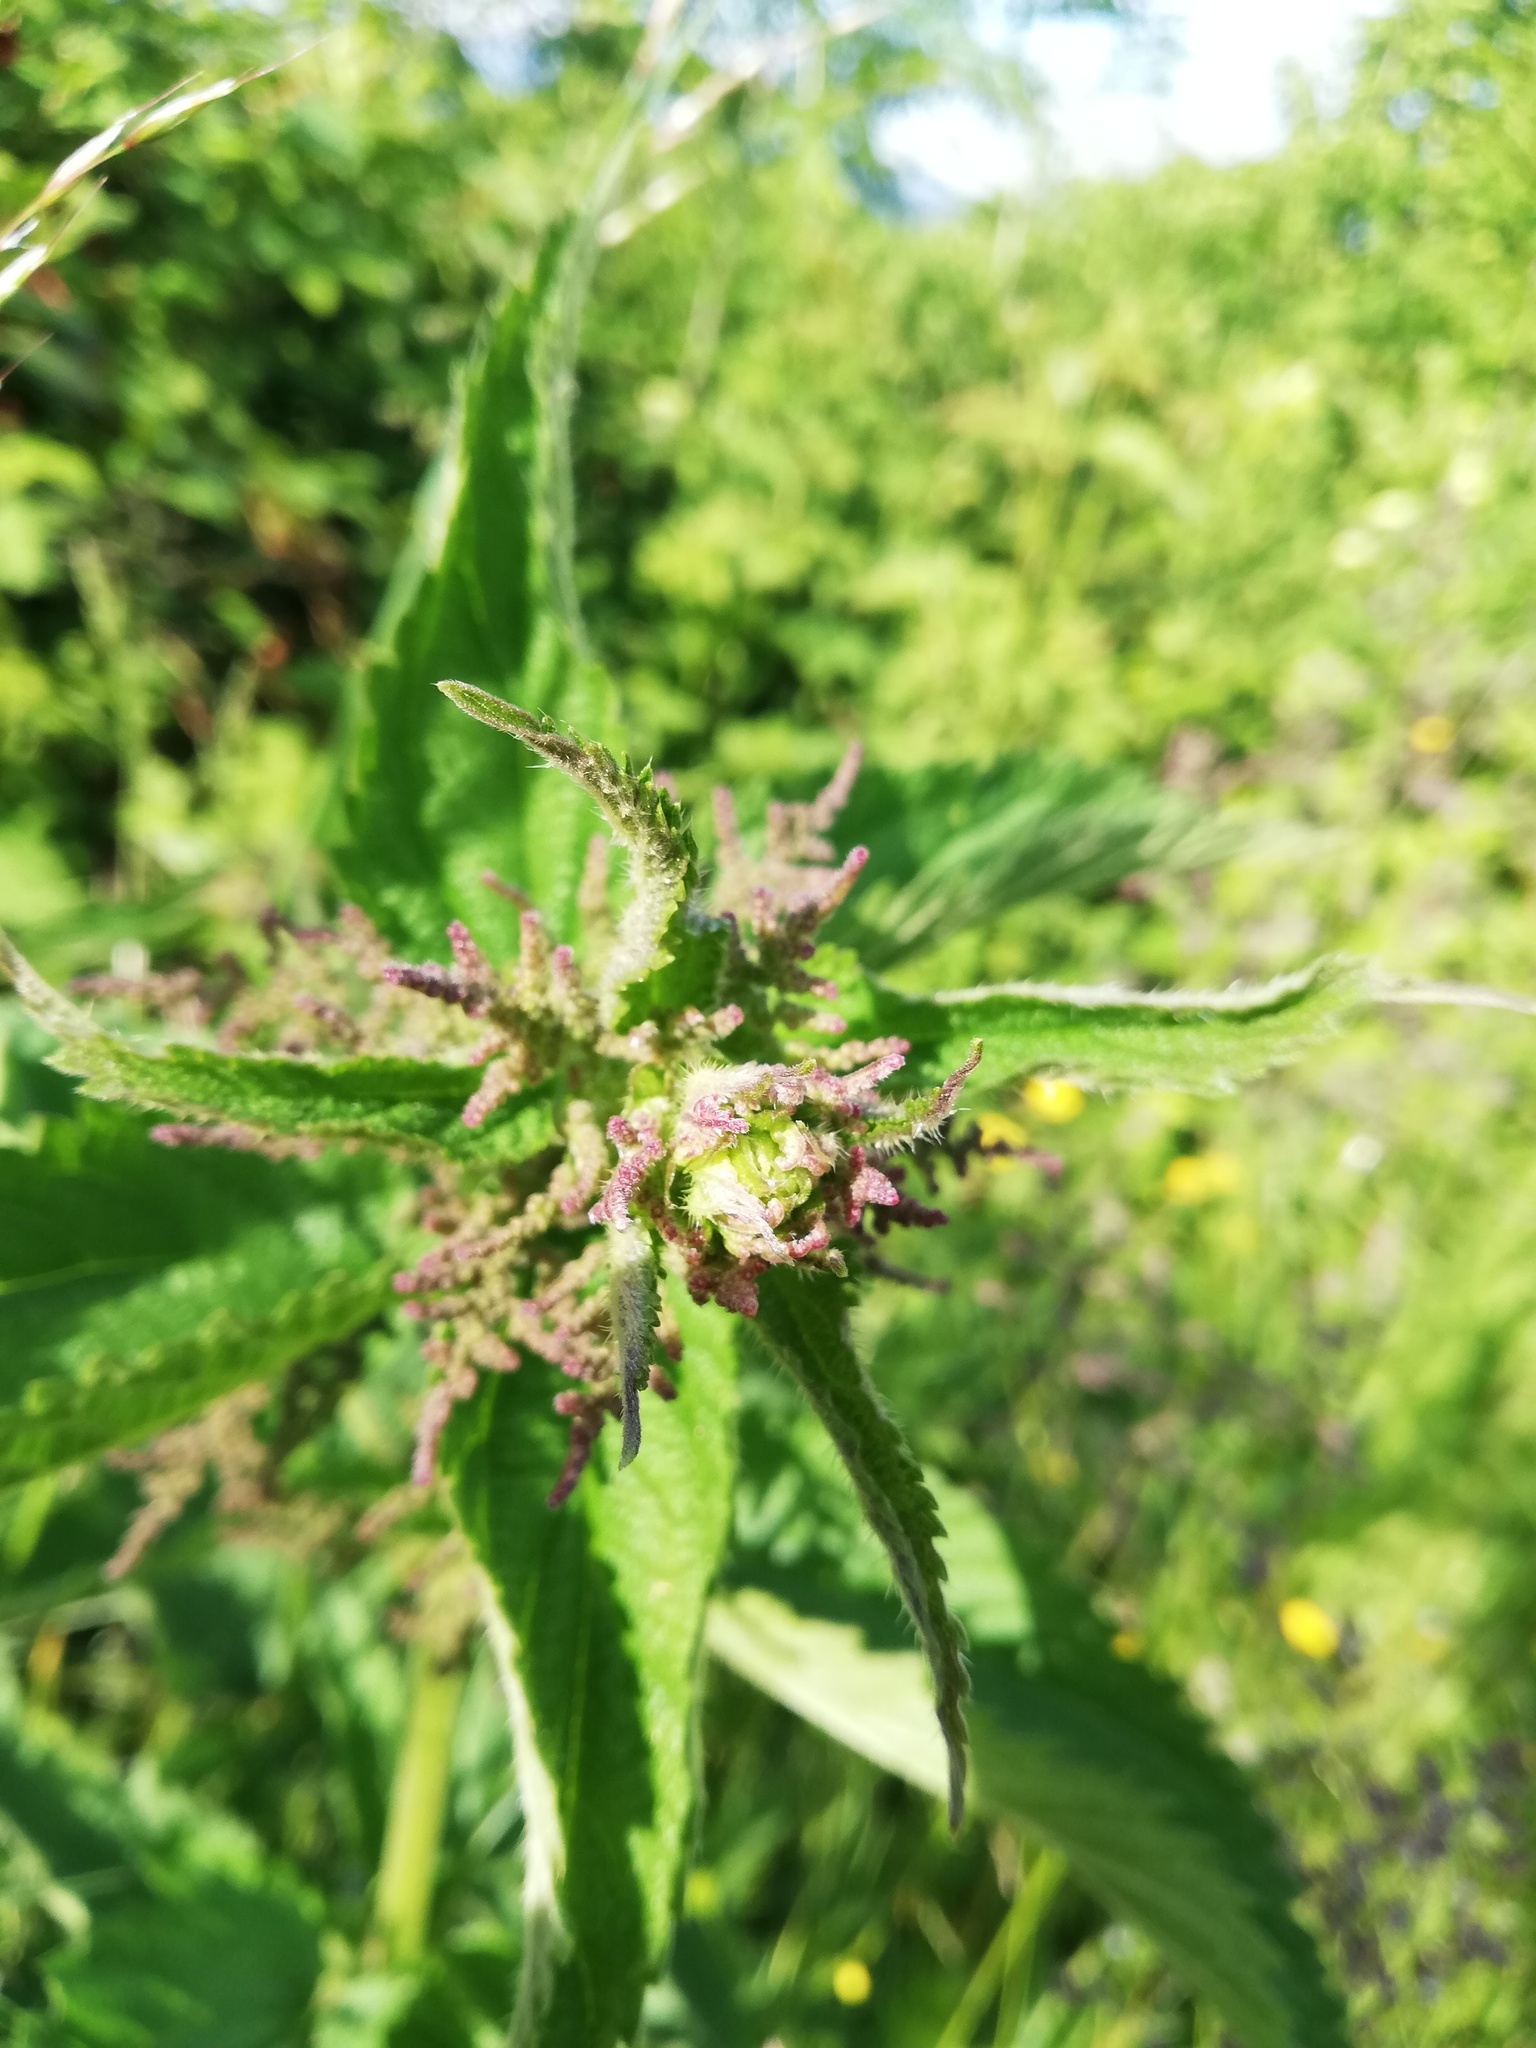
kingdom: Plantae
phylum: Tracheophyta
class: Magnoliopsida
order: Rosales
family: Urticaceae
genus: Urtica
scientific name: Urtica dioica
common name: Common nettle
